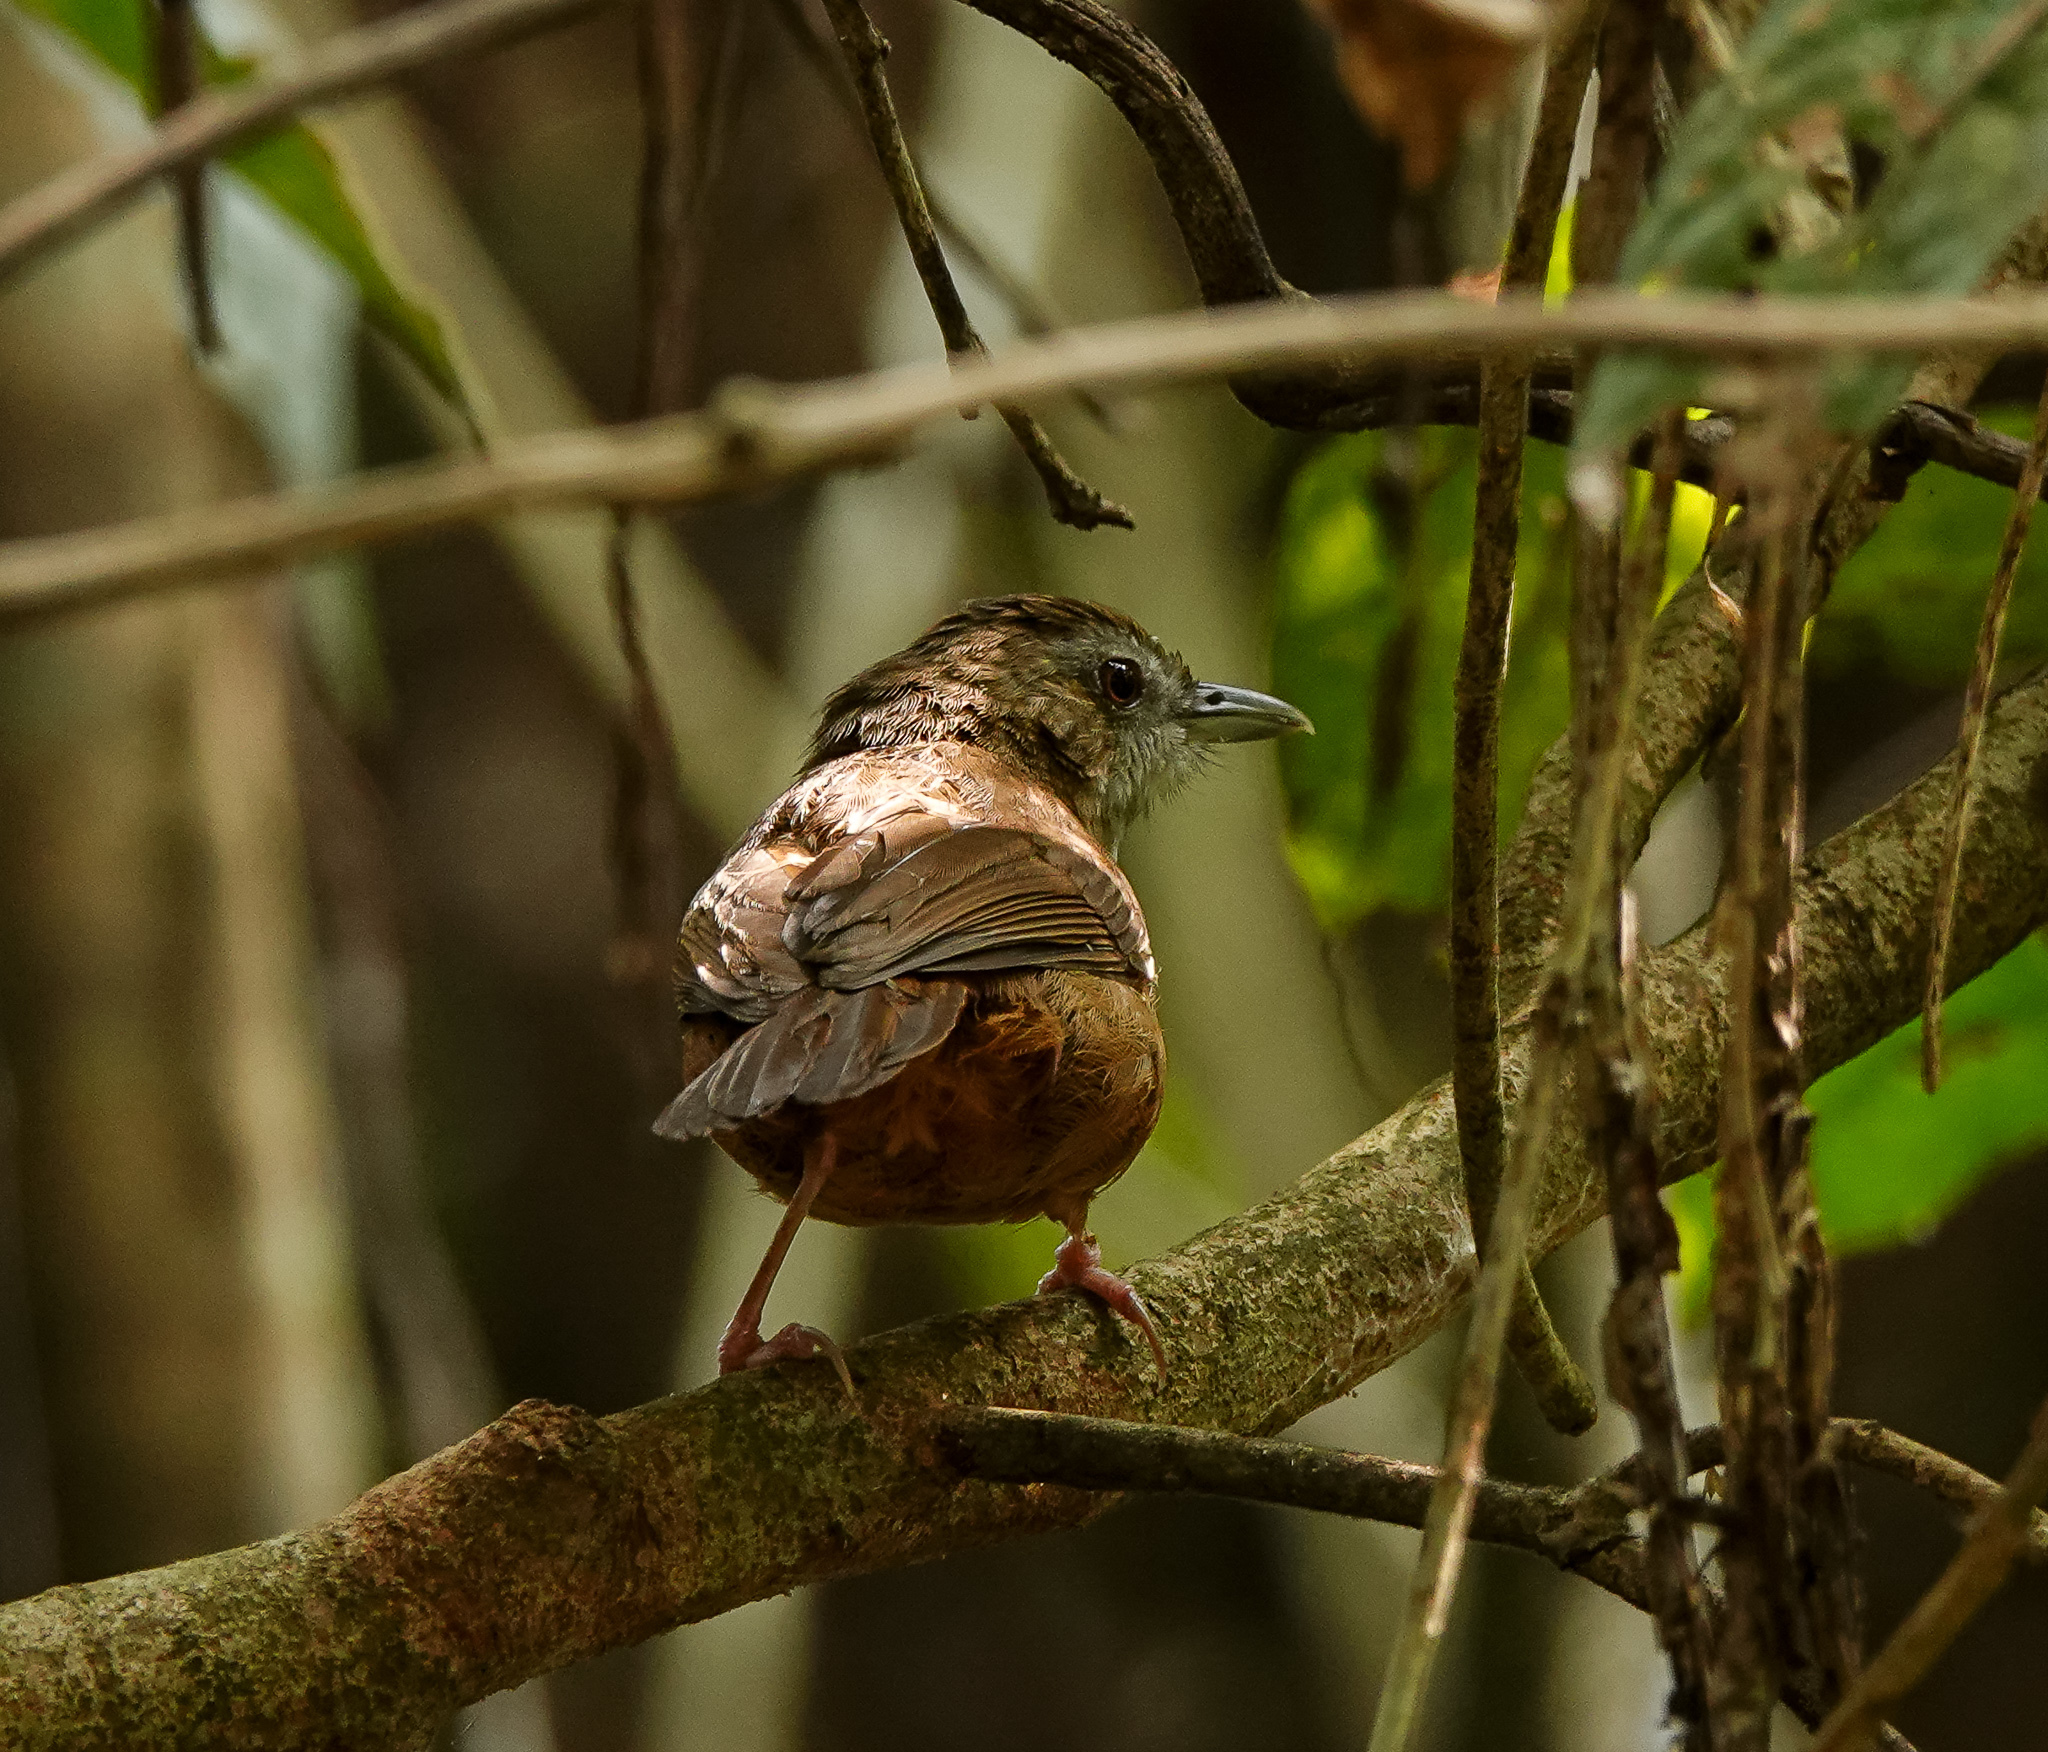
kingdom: Animalia
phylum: Chordata
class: Aves
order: Passeriformes
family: Pellorneidae
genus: Malacocincla
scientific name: Malacocincla abbotti
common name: Abbott's babbler
